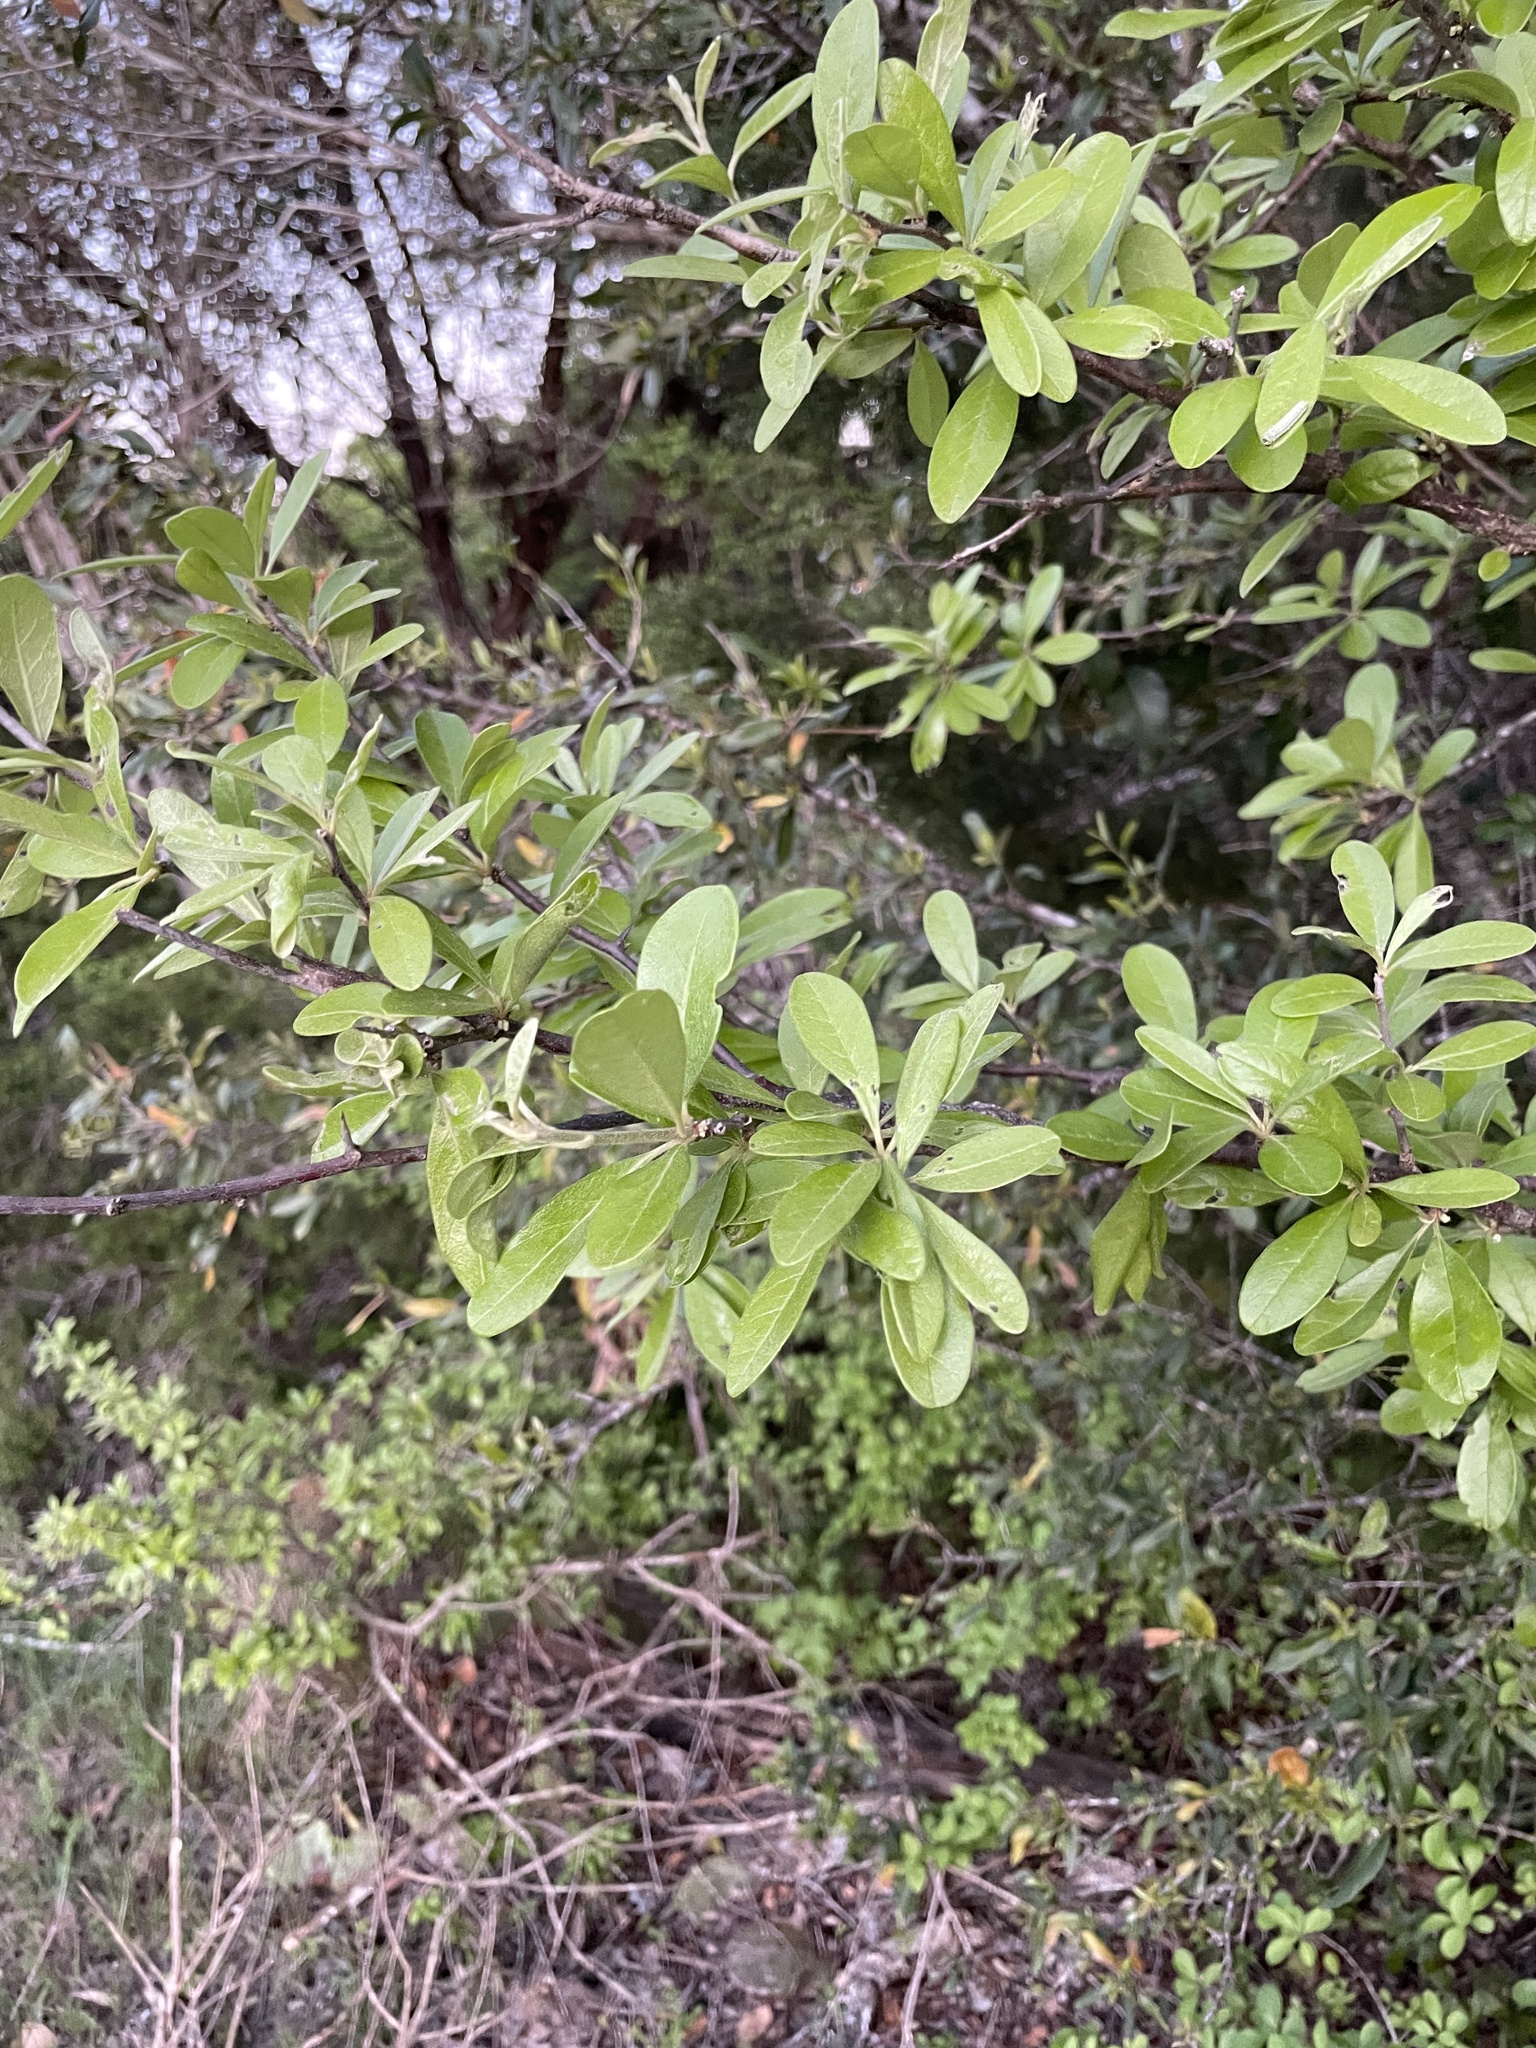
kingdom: Plantae
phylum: Tracheophyta
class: Magnoliopsida
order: Ericales
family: Sapotaceae
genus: Sideroxylon
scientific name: Sideroxylon lanuginosum
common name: Chittamwood
